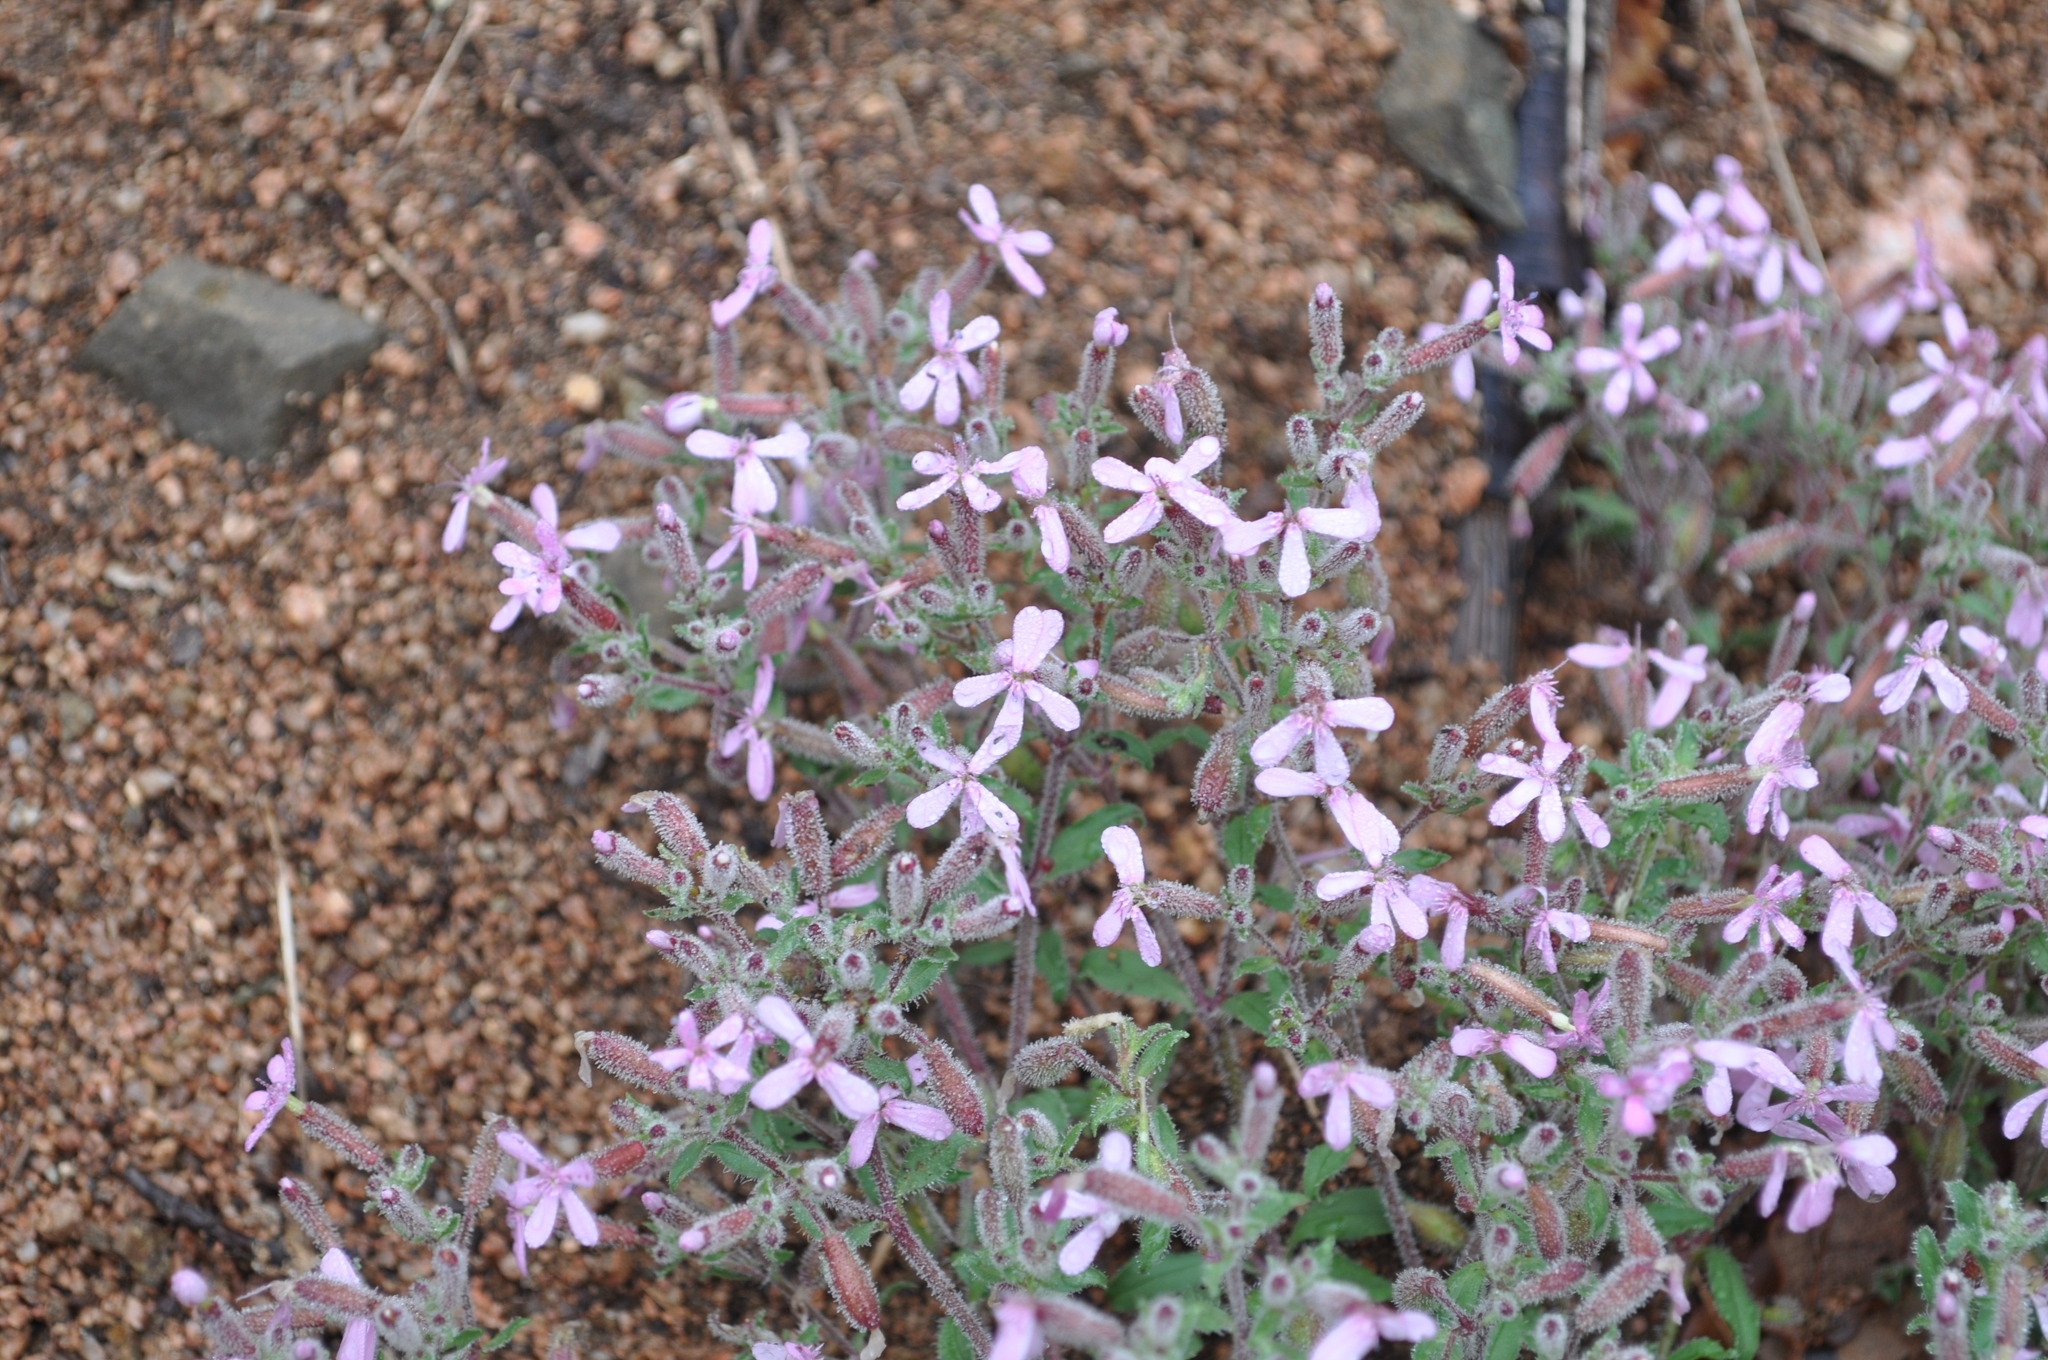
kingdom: Plantae
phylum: Tracheophyta
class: Magnoliopsida
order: Caryophyllales
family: Caryophyllaceae
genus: Saponaria
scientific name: Saponaria ocymoides
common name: Rock soapwort
